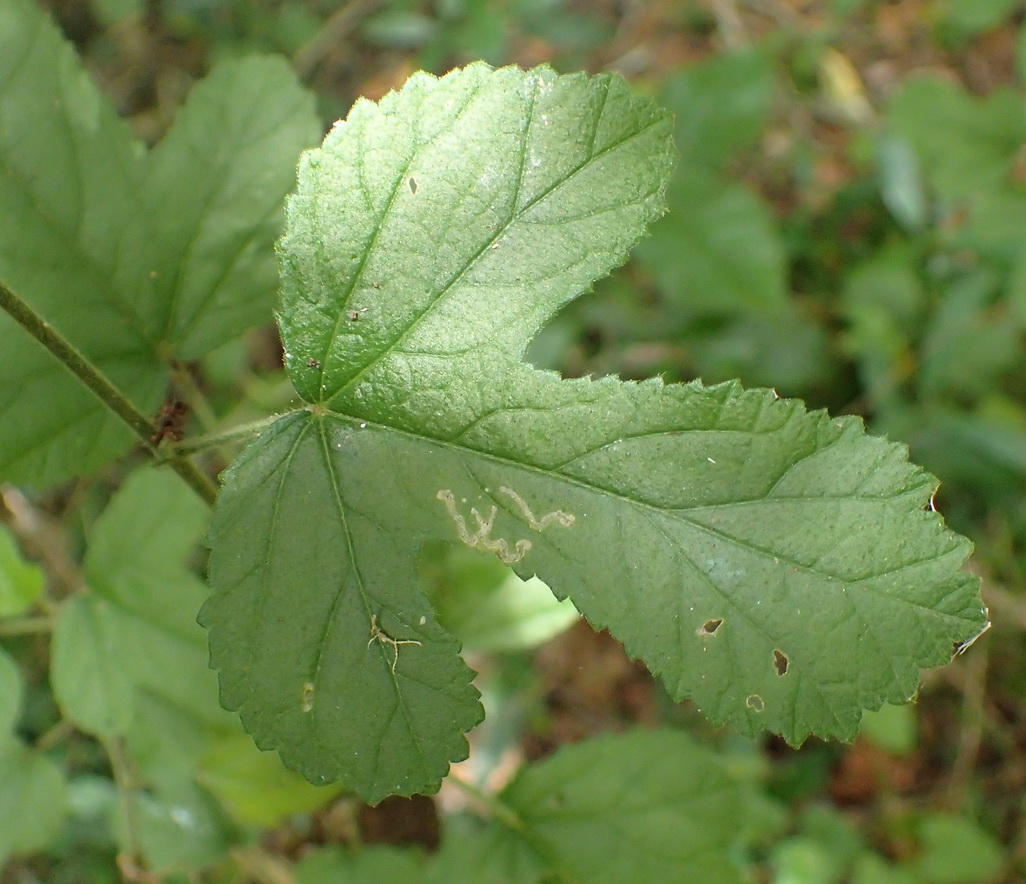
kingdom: Plantae
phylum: Tracheophyta
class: Magnoliopsida
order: Malvales
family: Malvaceae
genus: Hibiscus
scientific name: Hibiscus pedunculatus
